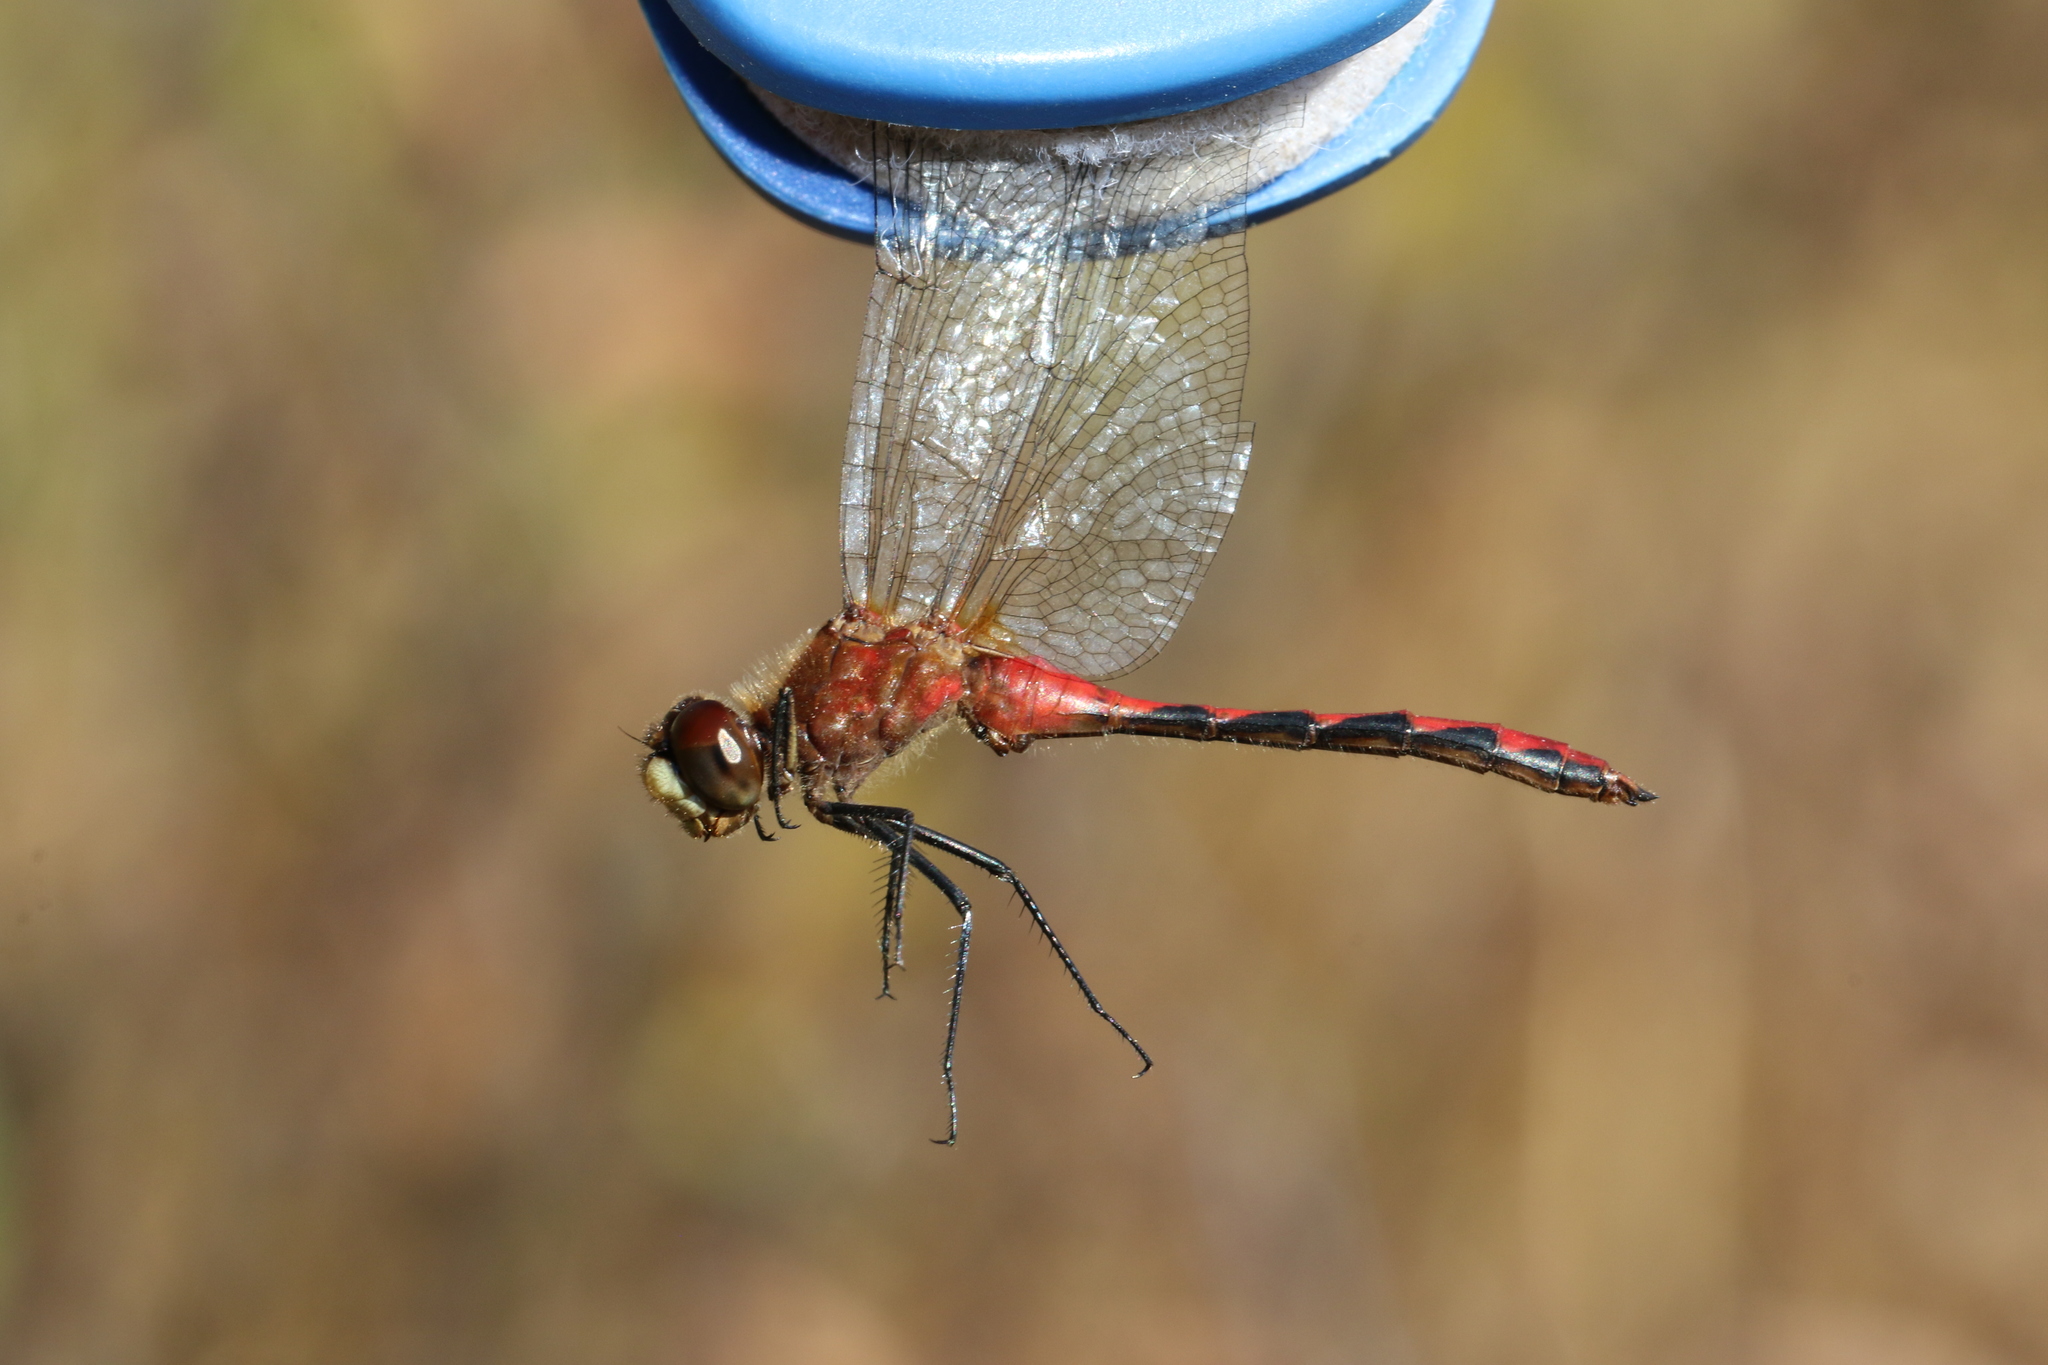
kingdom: Animalia
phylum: Arthropoda
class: Insecta
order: Odonata
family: Libellulidae
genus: Sympetrum
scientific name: Sympetrum obtrusum
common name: White-faced meadowhawk
